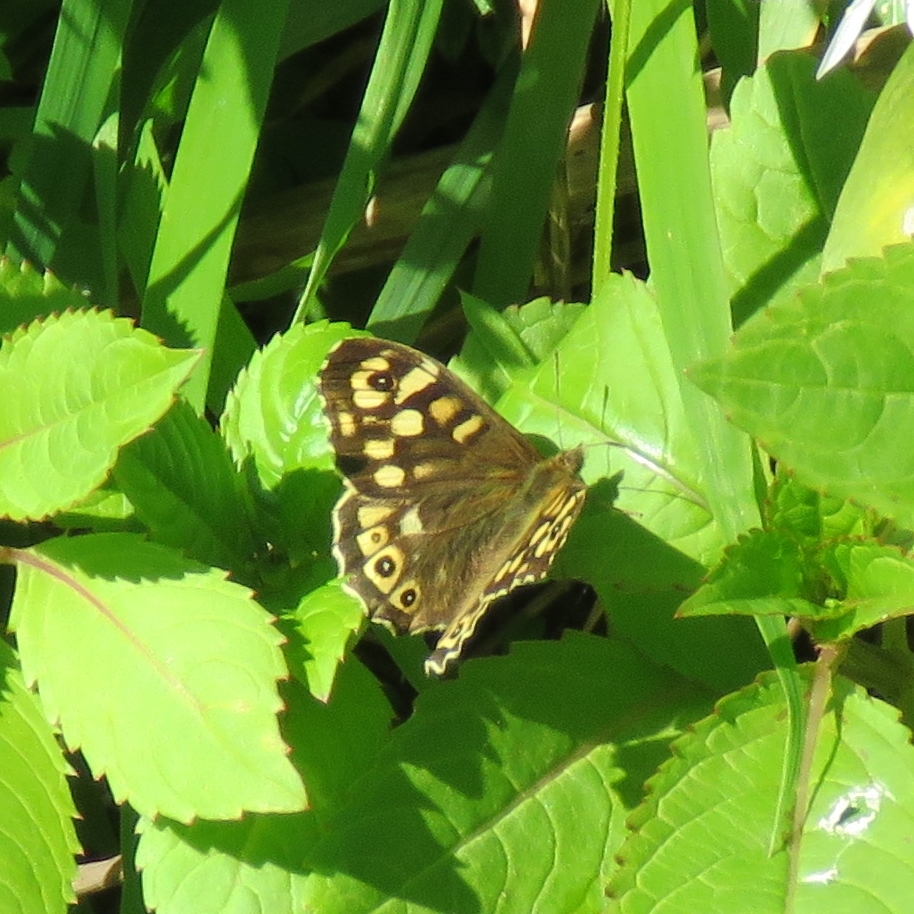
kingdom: Animalia
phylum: Arthropoda
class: Insecta
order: Lepidoptera
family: Nymphalidae
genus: Pararge
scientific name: Pararge aegeria
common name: Speckled wood
